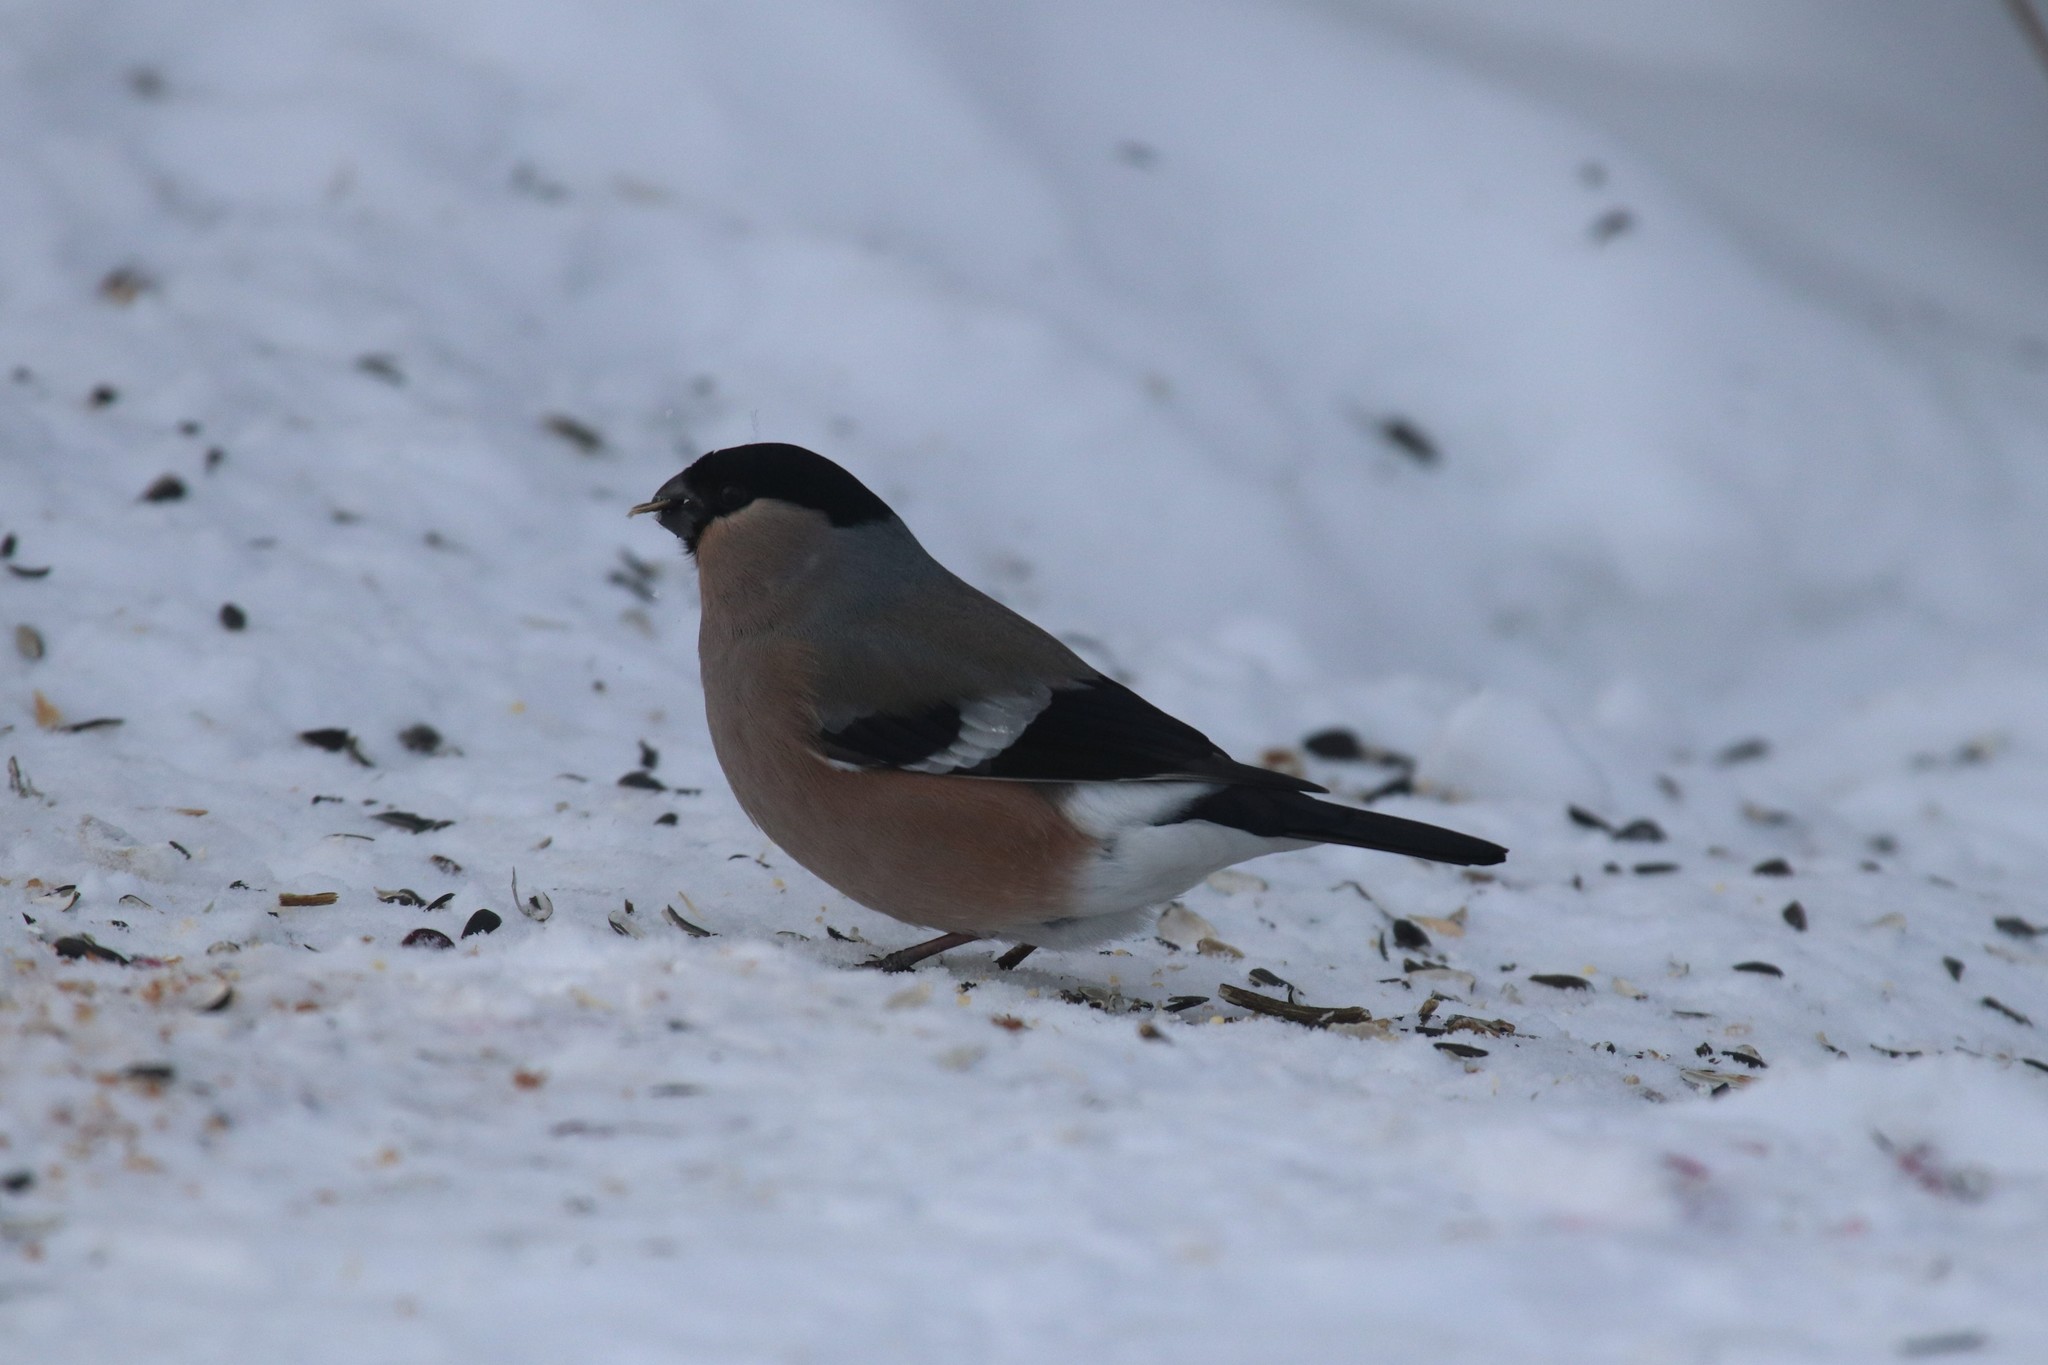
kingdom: Animalia
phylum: Chordata
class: Aves
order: Passeriformes
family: Fringillidae
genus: Pyrrhula
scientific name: Pyrrhula pyrrhula
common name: Eurasian bullfinch
